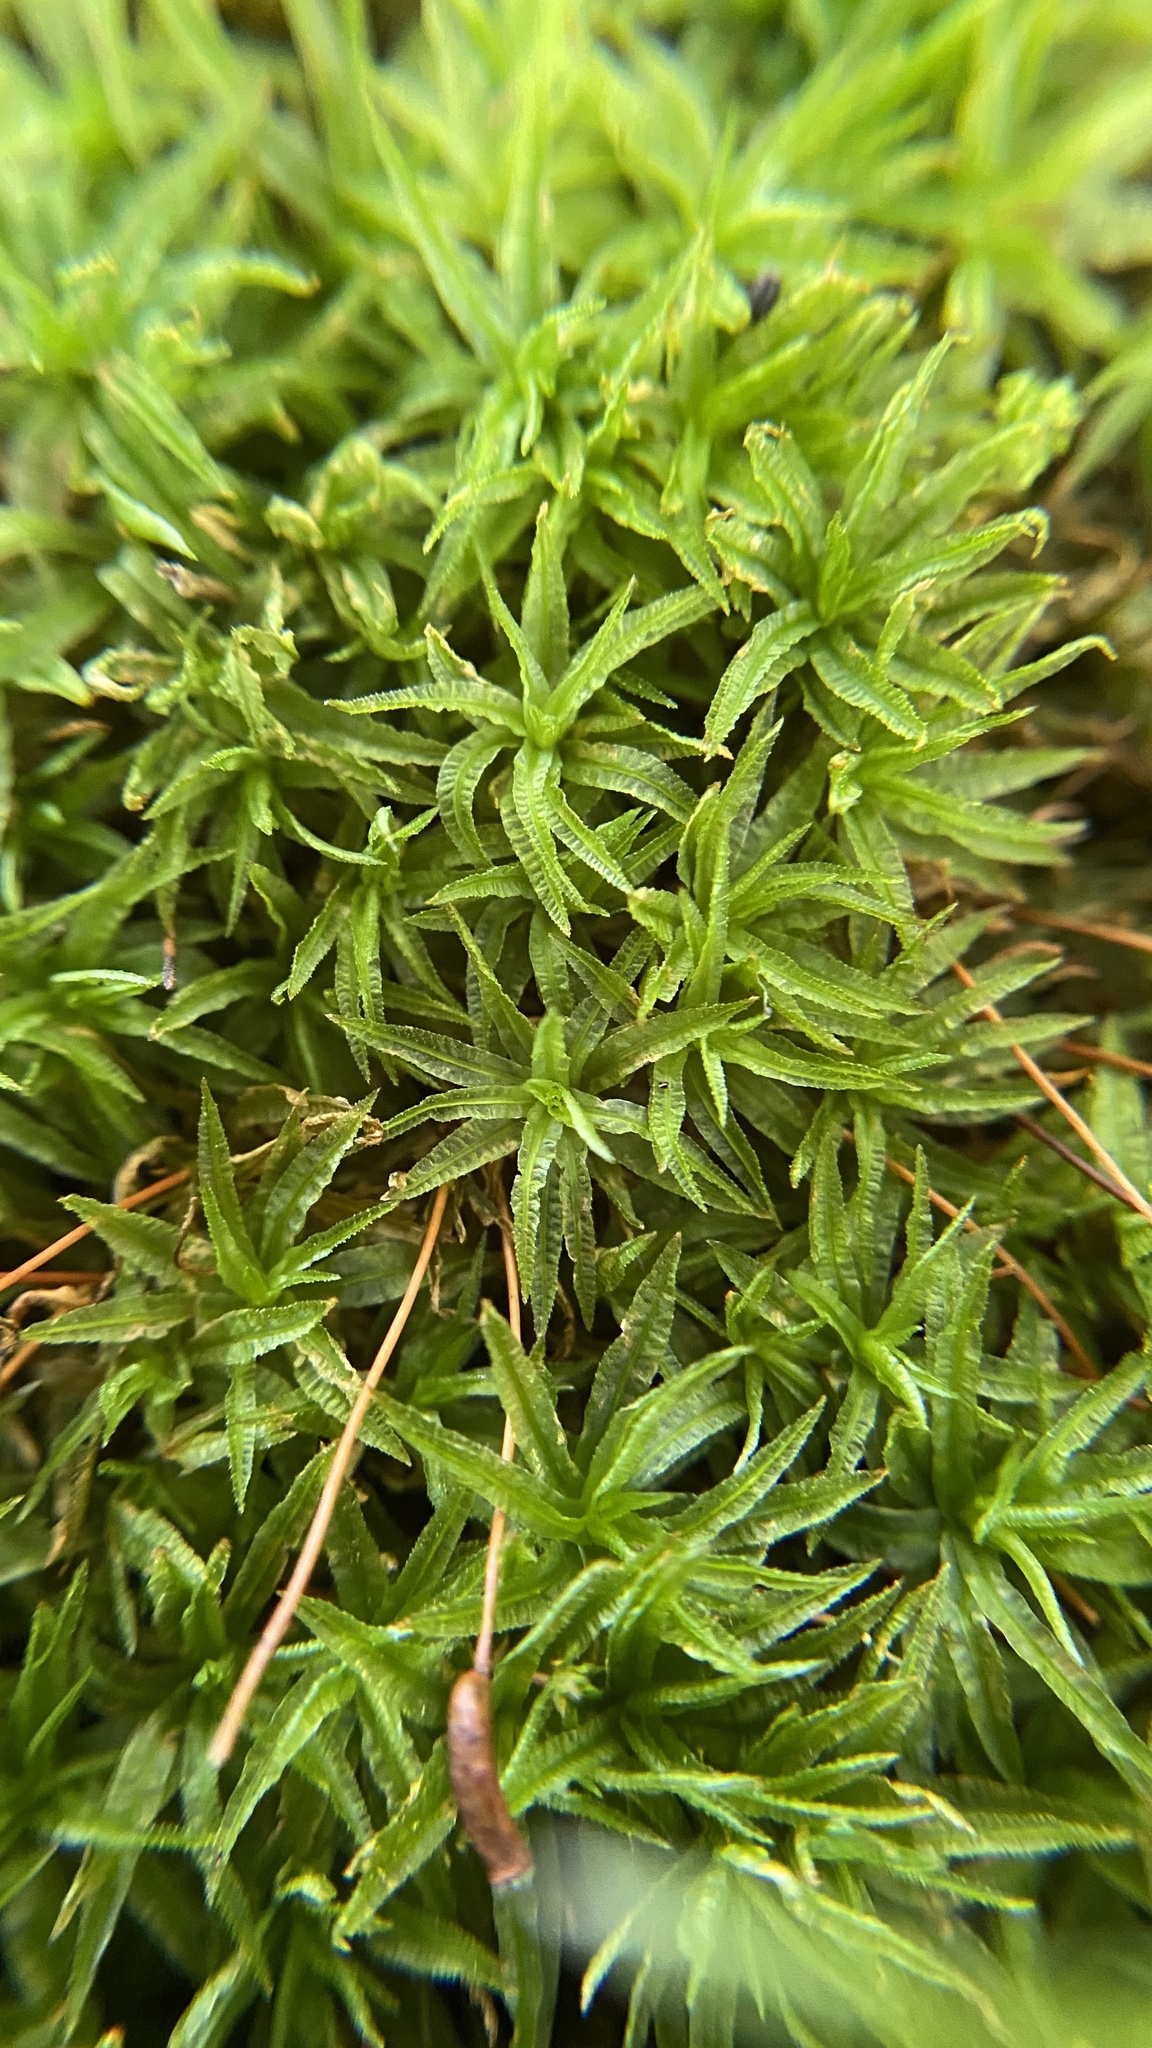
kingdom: Plantae
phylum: Bryophyta
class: Polytrichopsida
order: Polytrichales
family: Polytrichaceae
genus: Atrichum
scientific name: Atrichum undulatum
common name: Common smoothcap
